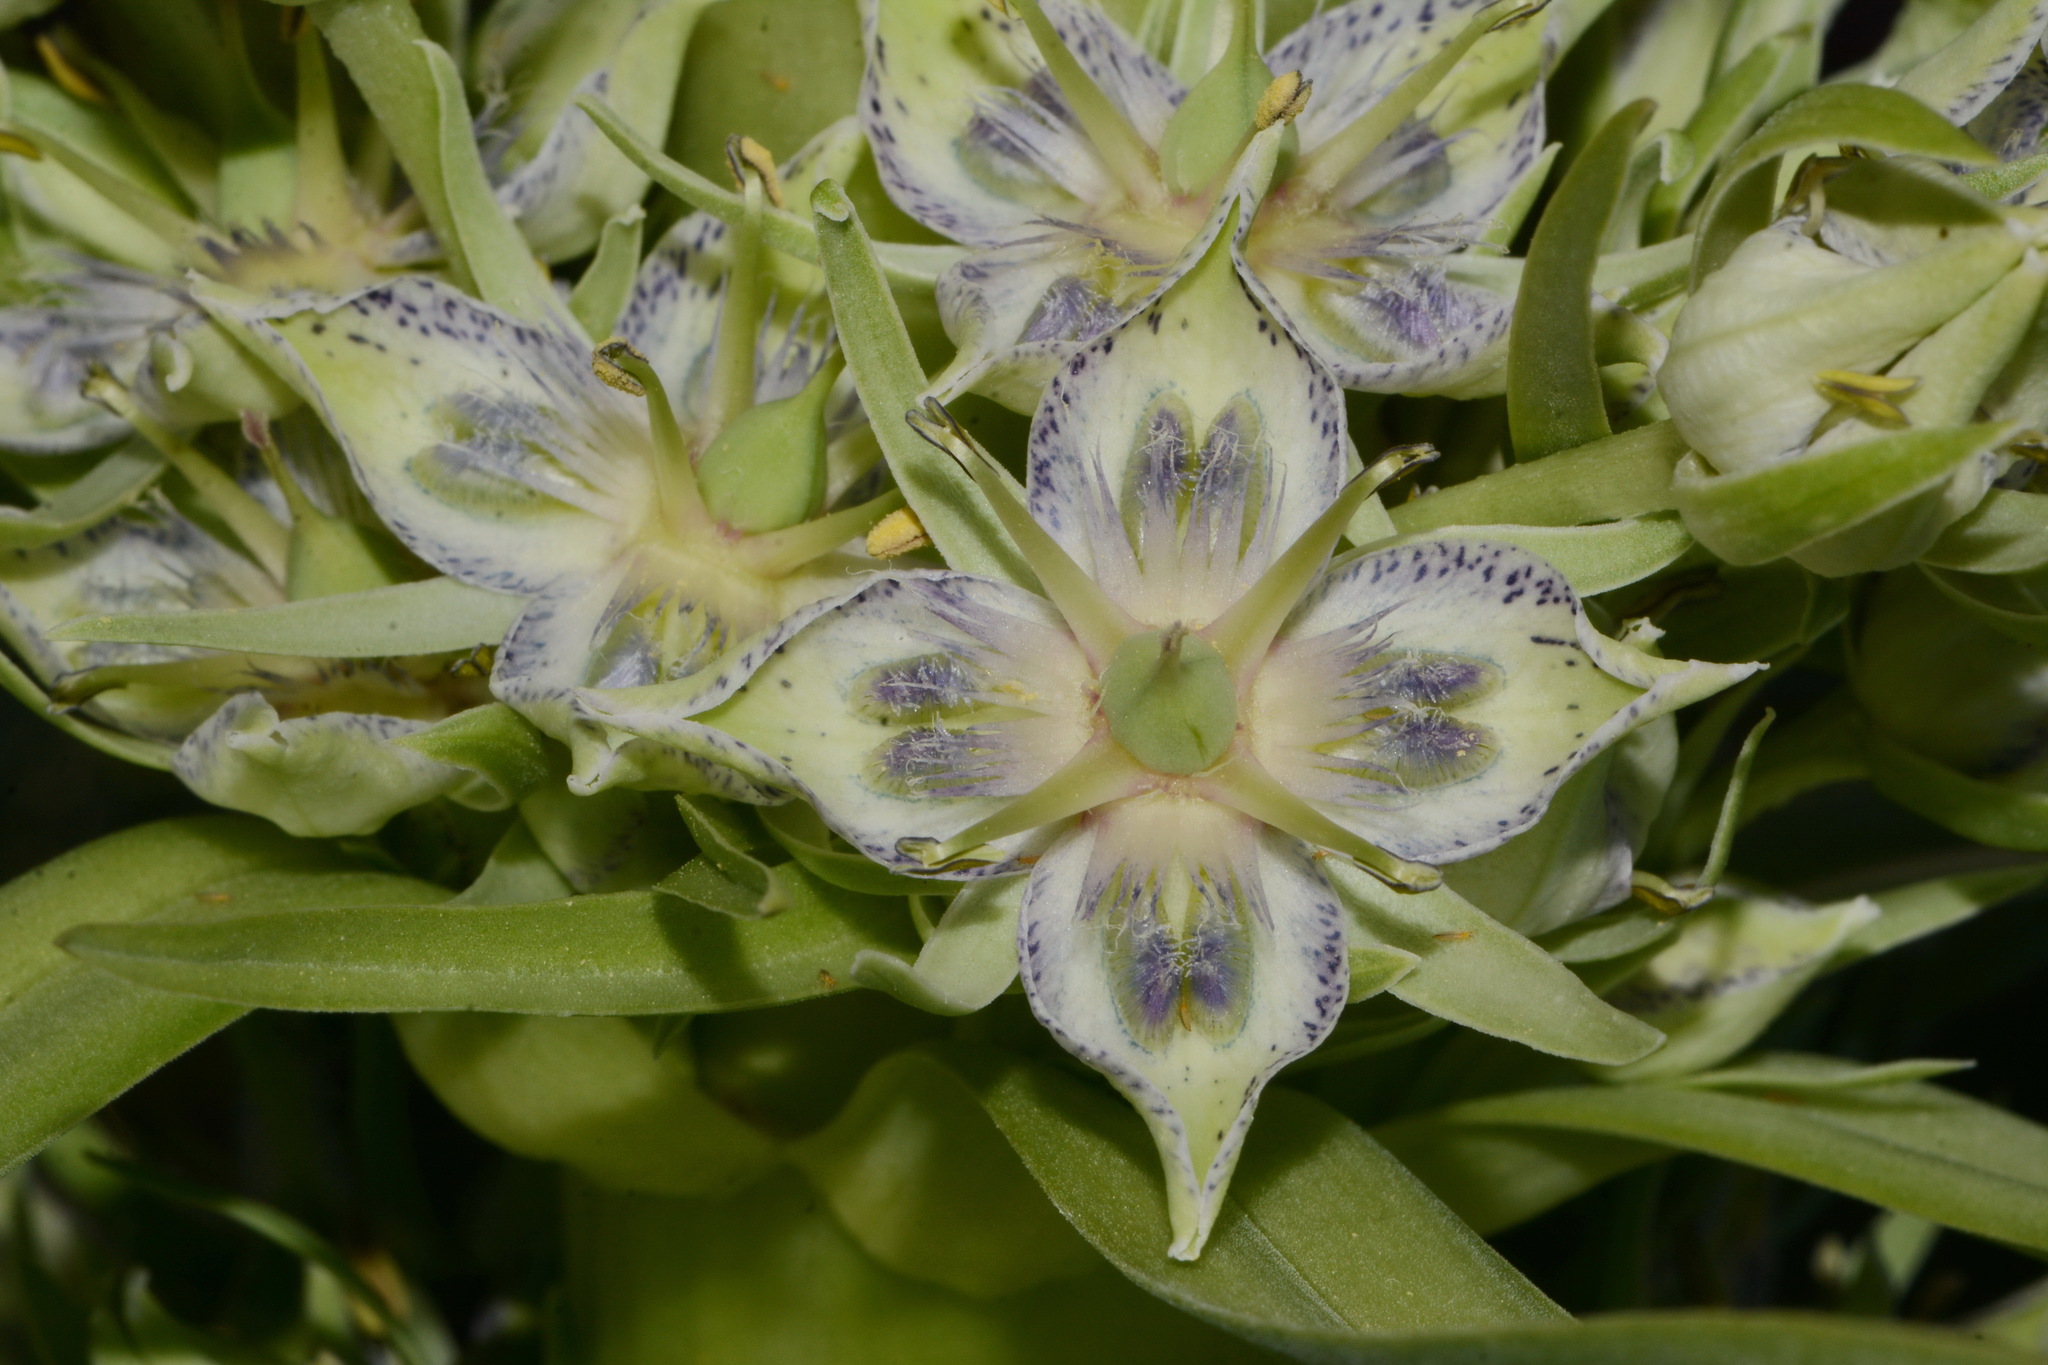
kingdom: Plantae
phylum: Tracheophyta
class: Magnoliopsida
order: Gentianales
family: Gentianaceae
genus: Frasera
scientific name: Frasera speciosa
